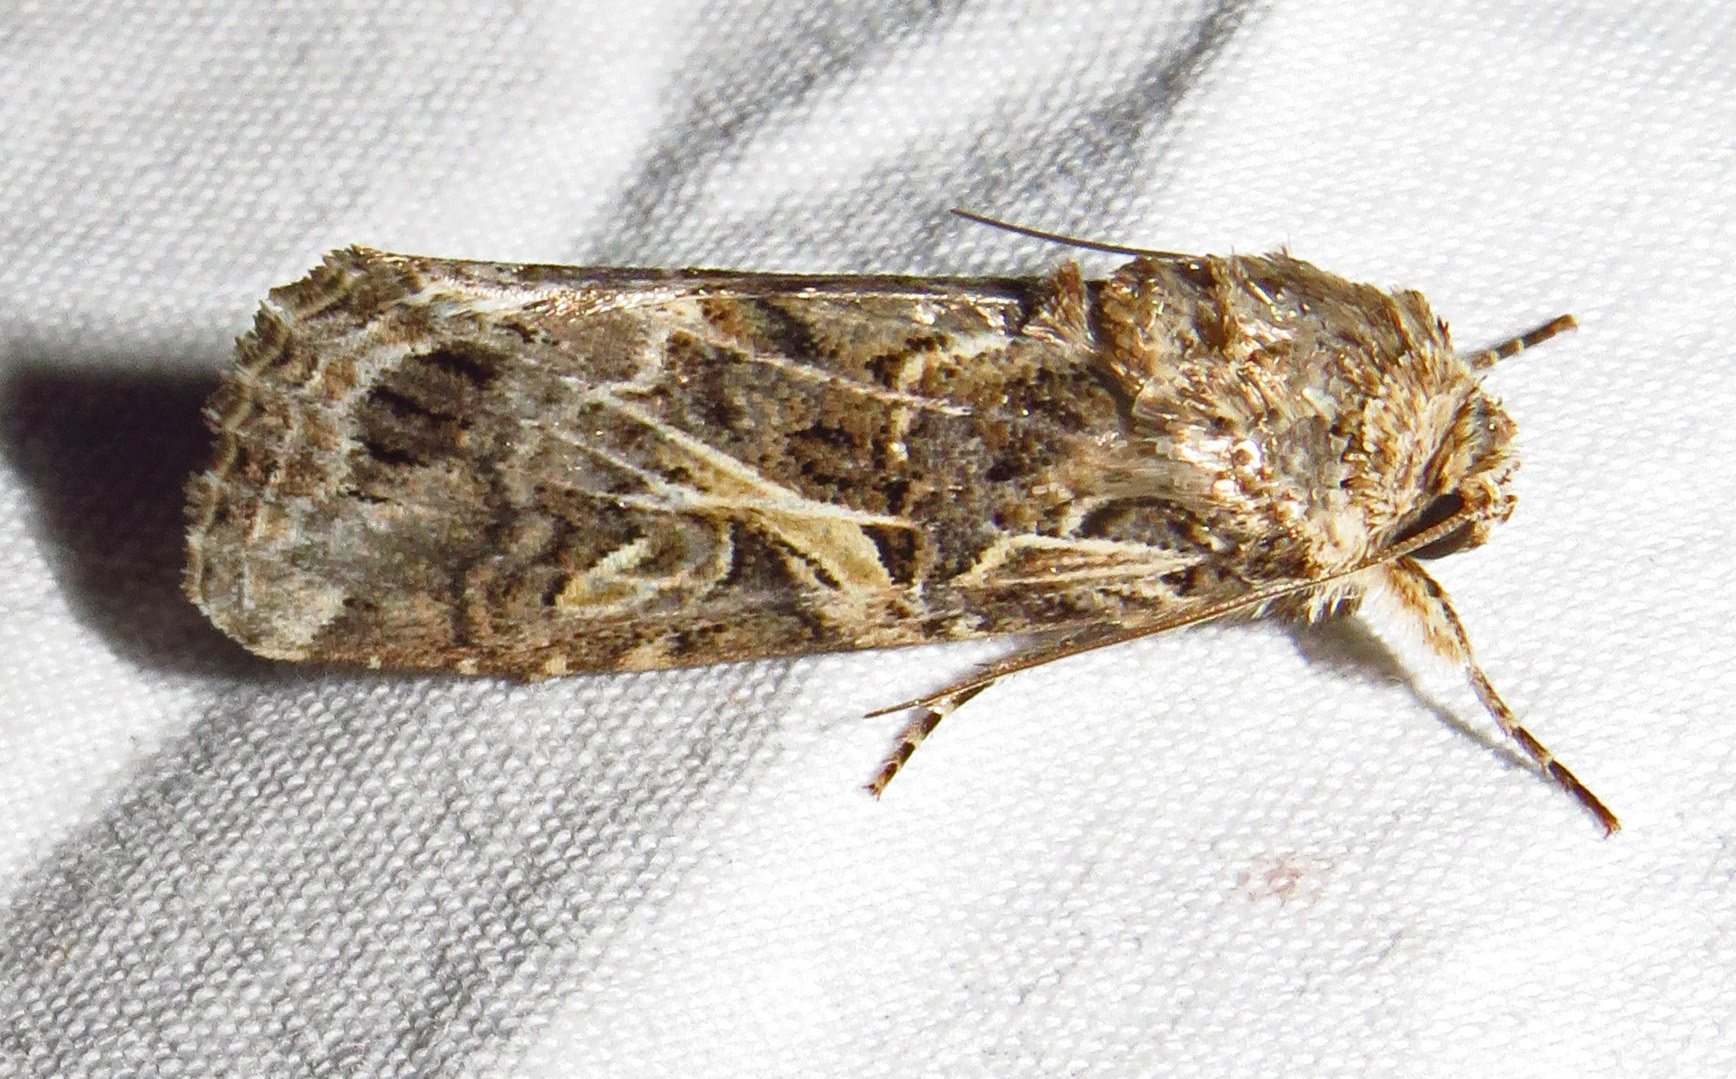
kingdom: Animalia
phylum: Arthropoda
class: Insecta
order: Lepidoptera
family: Noctuidae
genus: Spodoptera
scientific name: Spodoptera ornithogalli
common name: Yellow-striped armyworm
